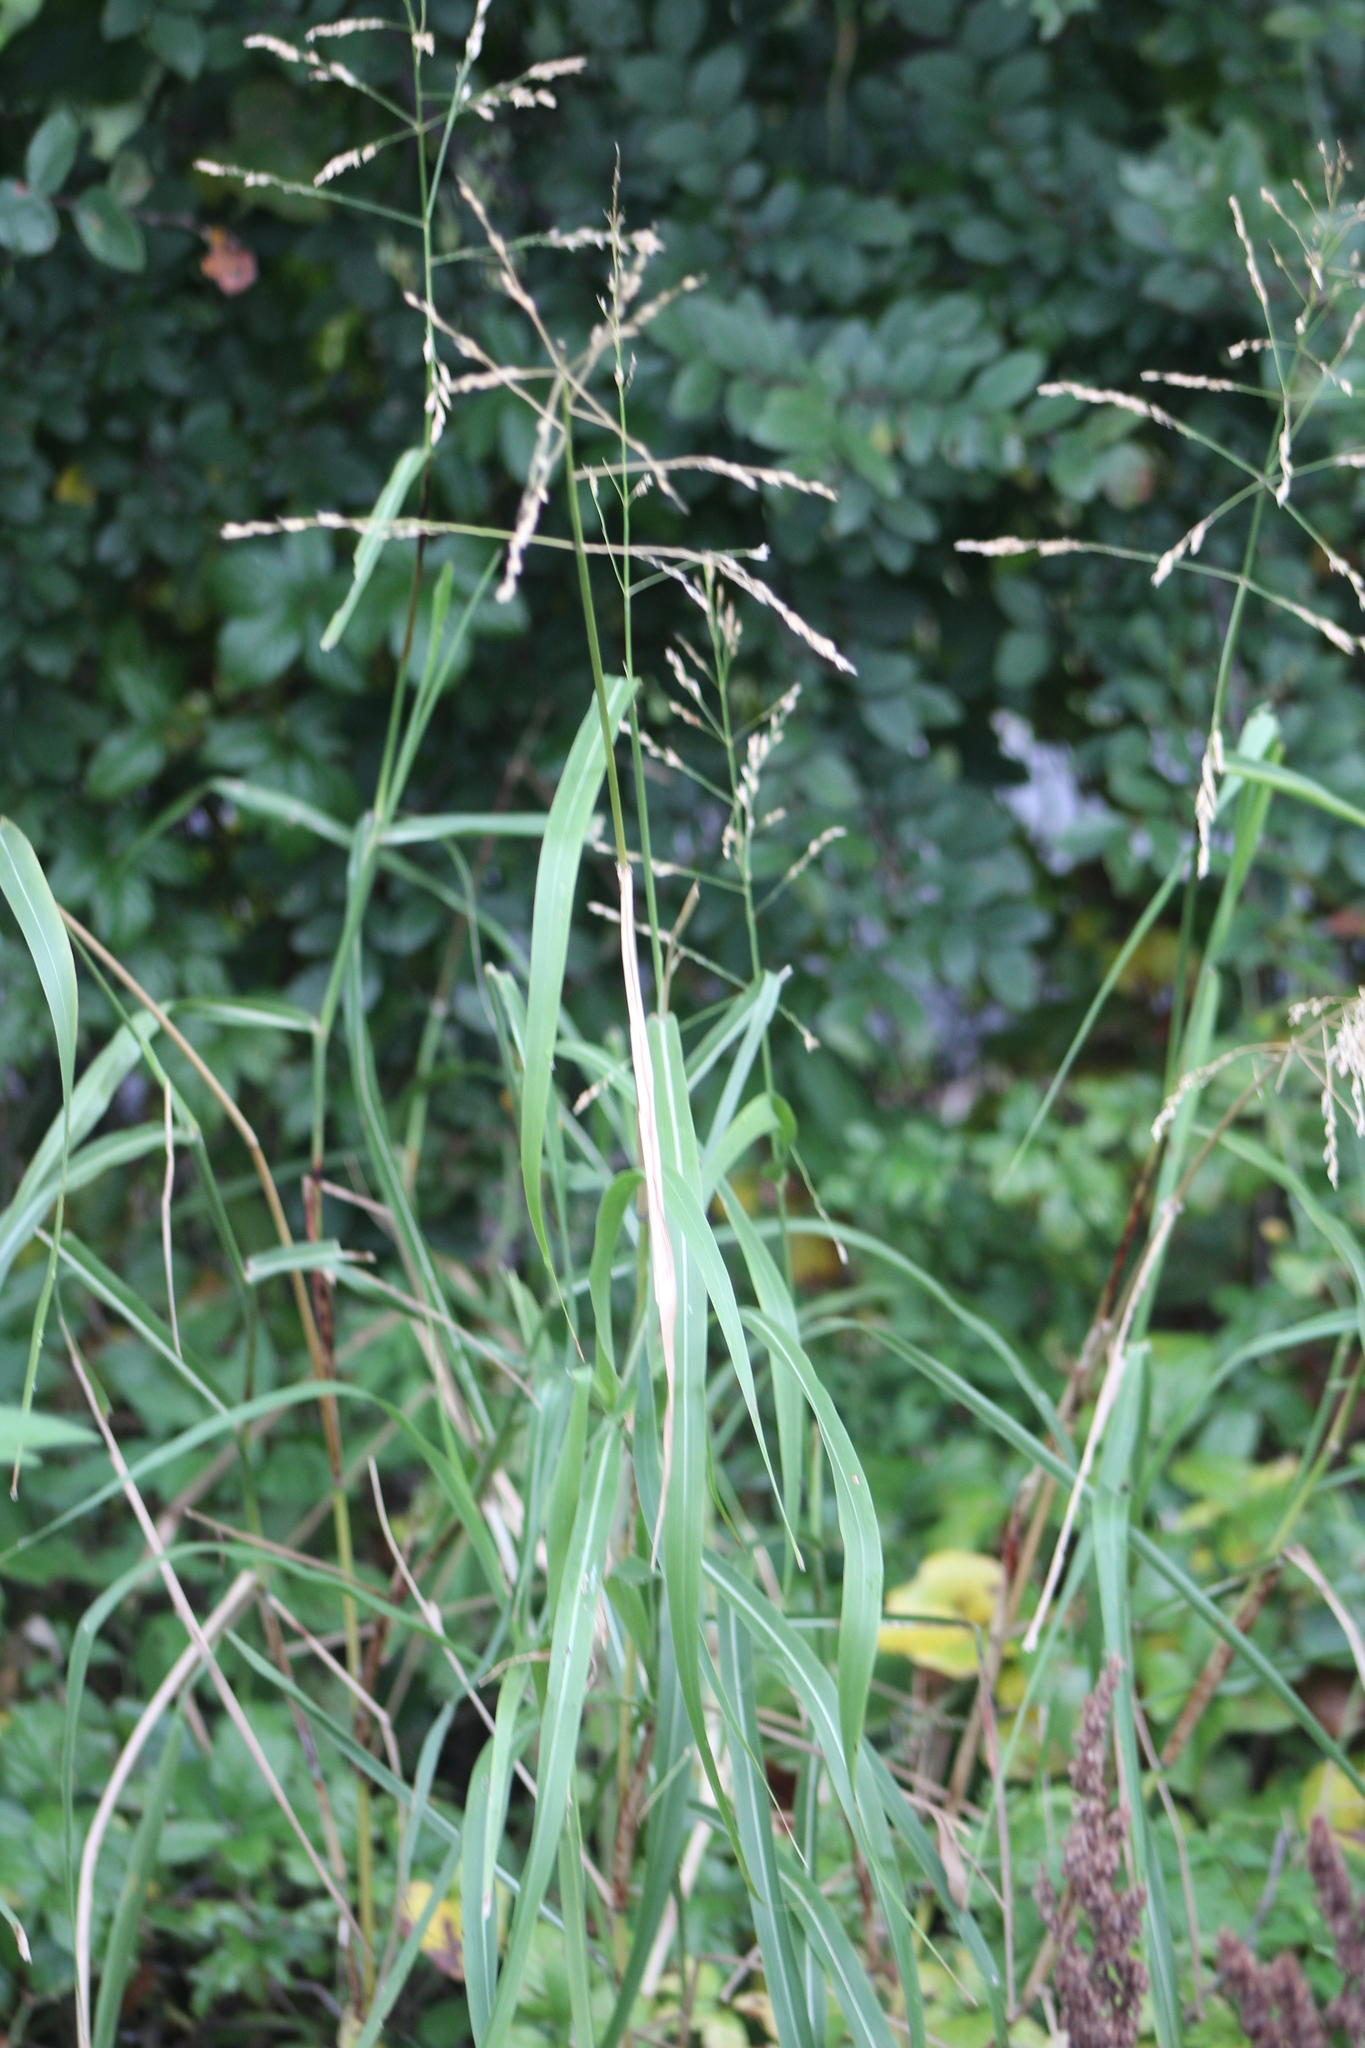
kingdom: Plantae
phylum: Tracheophyta
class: Liliopsida
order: Poales
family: Poaceae
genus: Sorghum
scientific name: Sorghum halepense
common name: Johnson-grass
